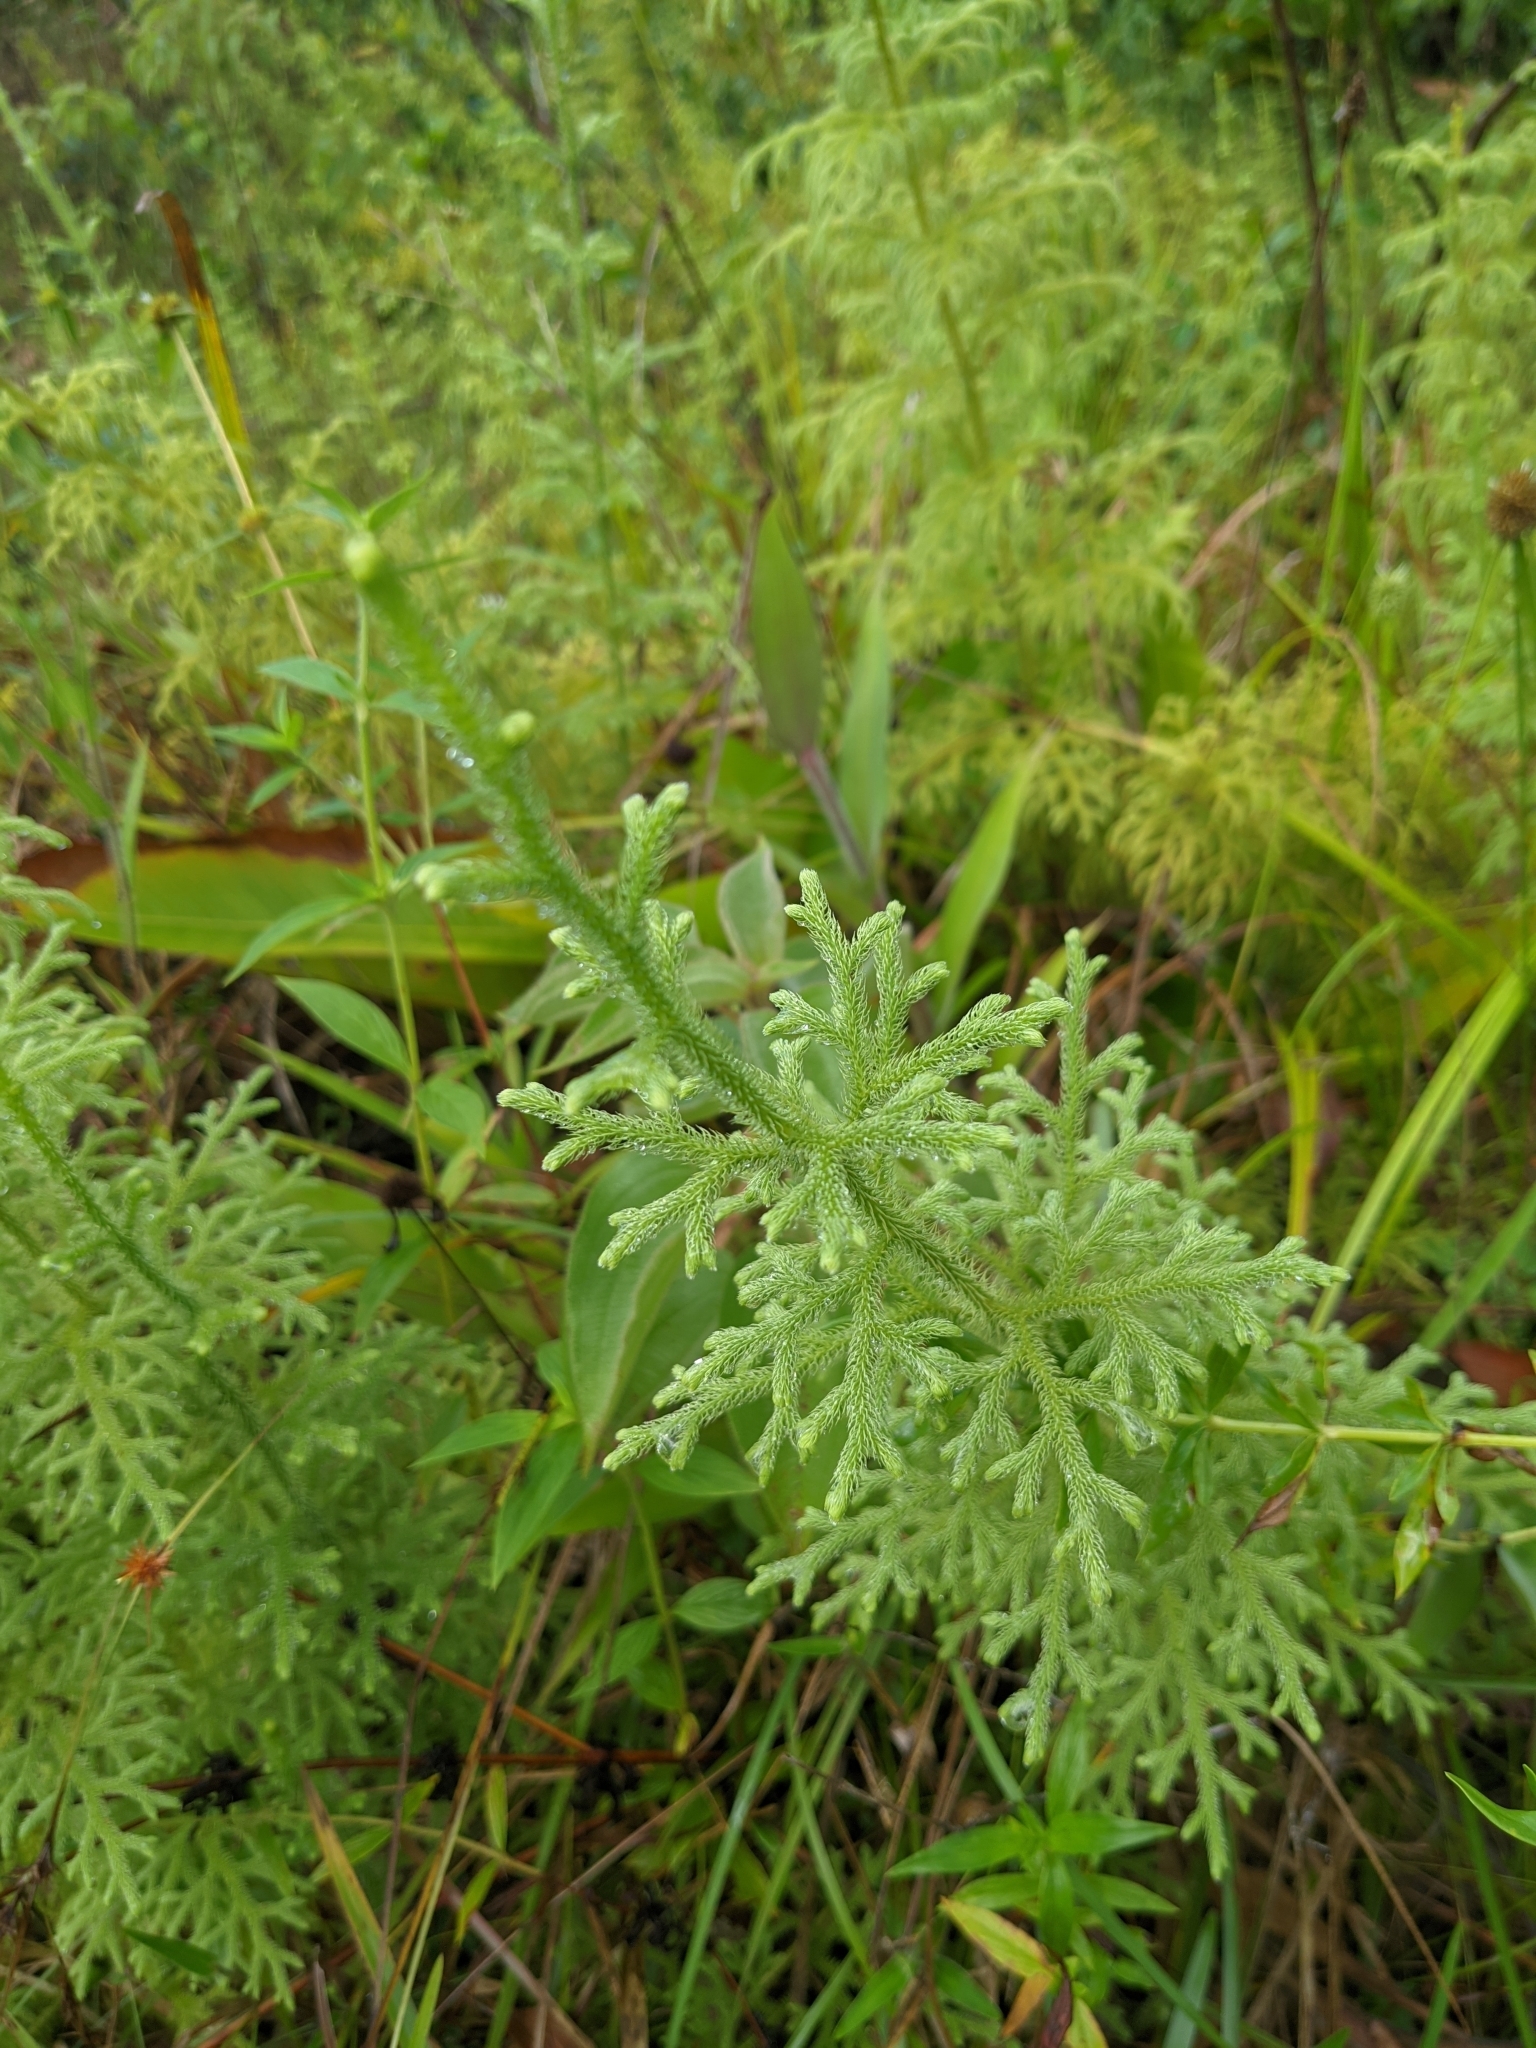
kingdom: Plantae
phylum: Tracheophyta
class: Lycopodiopsida
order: Lycopodiales
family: Lycopodiaceae
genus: Palhinhaea
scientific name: Palhinhaea cernua
